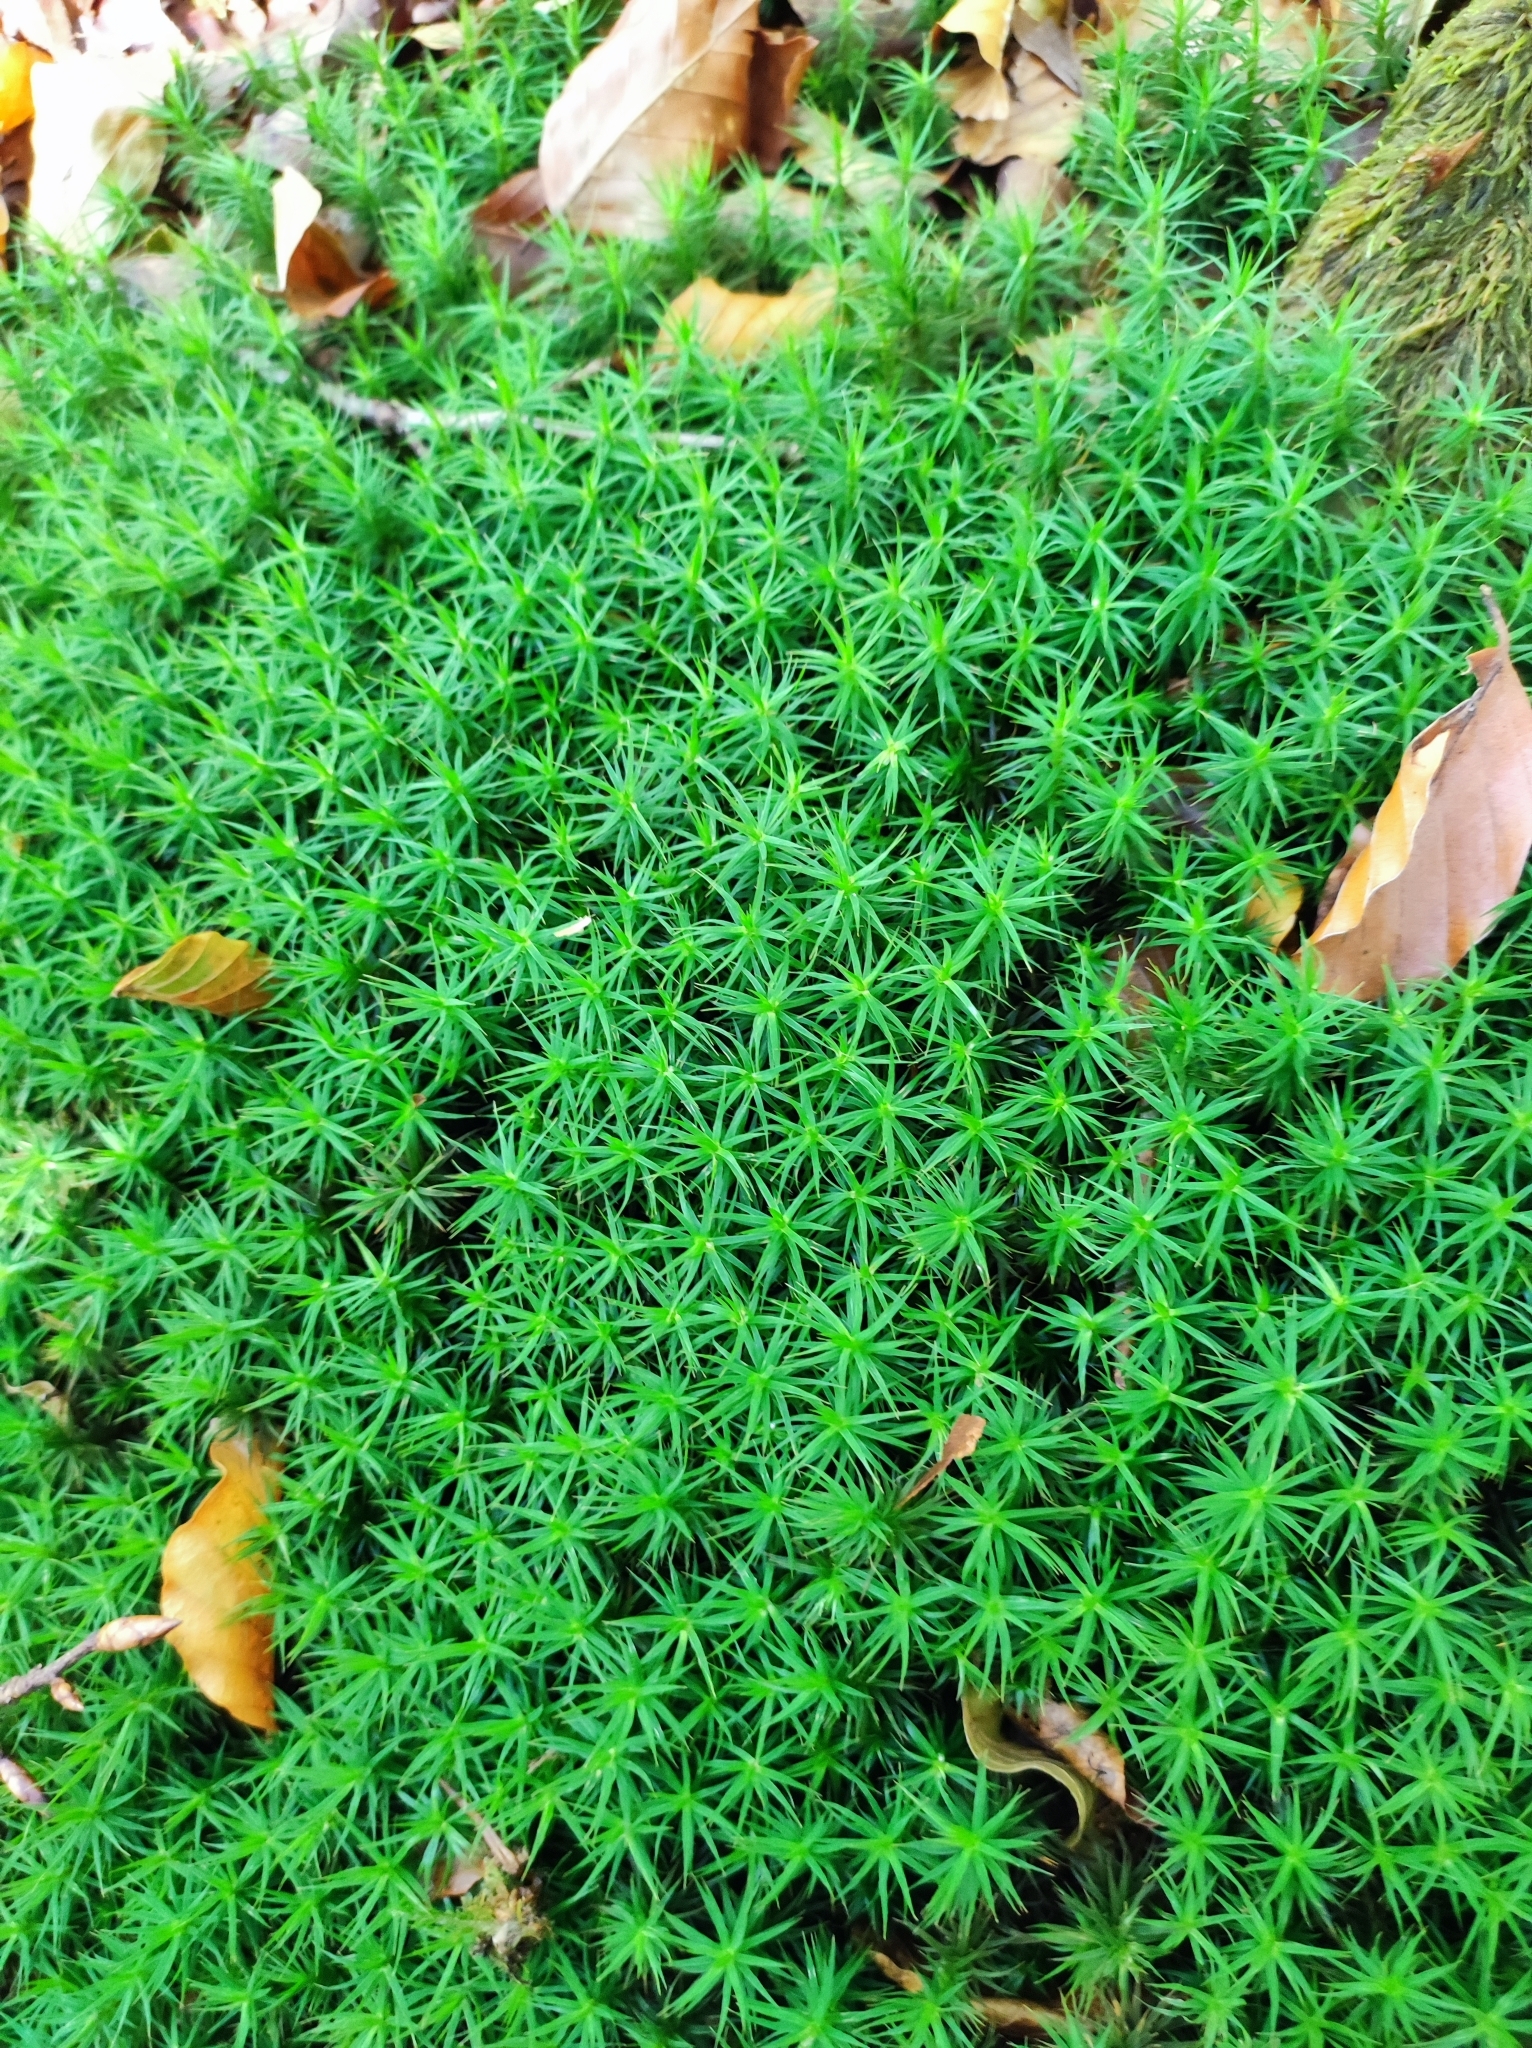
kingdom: Plantae
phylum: Bryophyta
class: Polytrichopsida
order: Polytrichales
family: Polytrichaceae
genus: Polytrichum
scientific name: Polytrichum formosum
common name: Bank haircap moss
